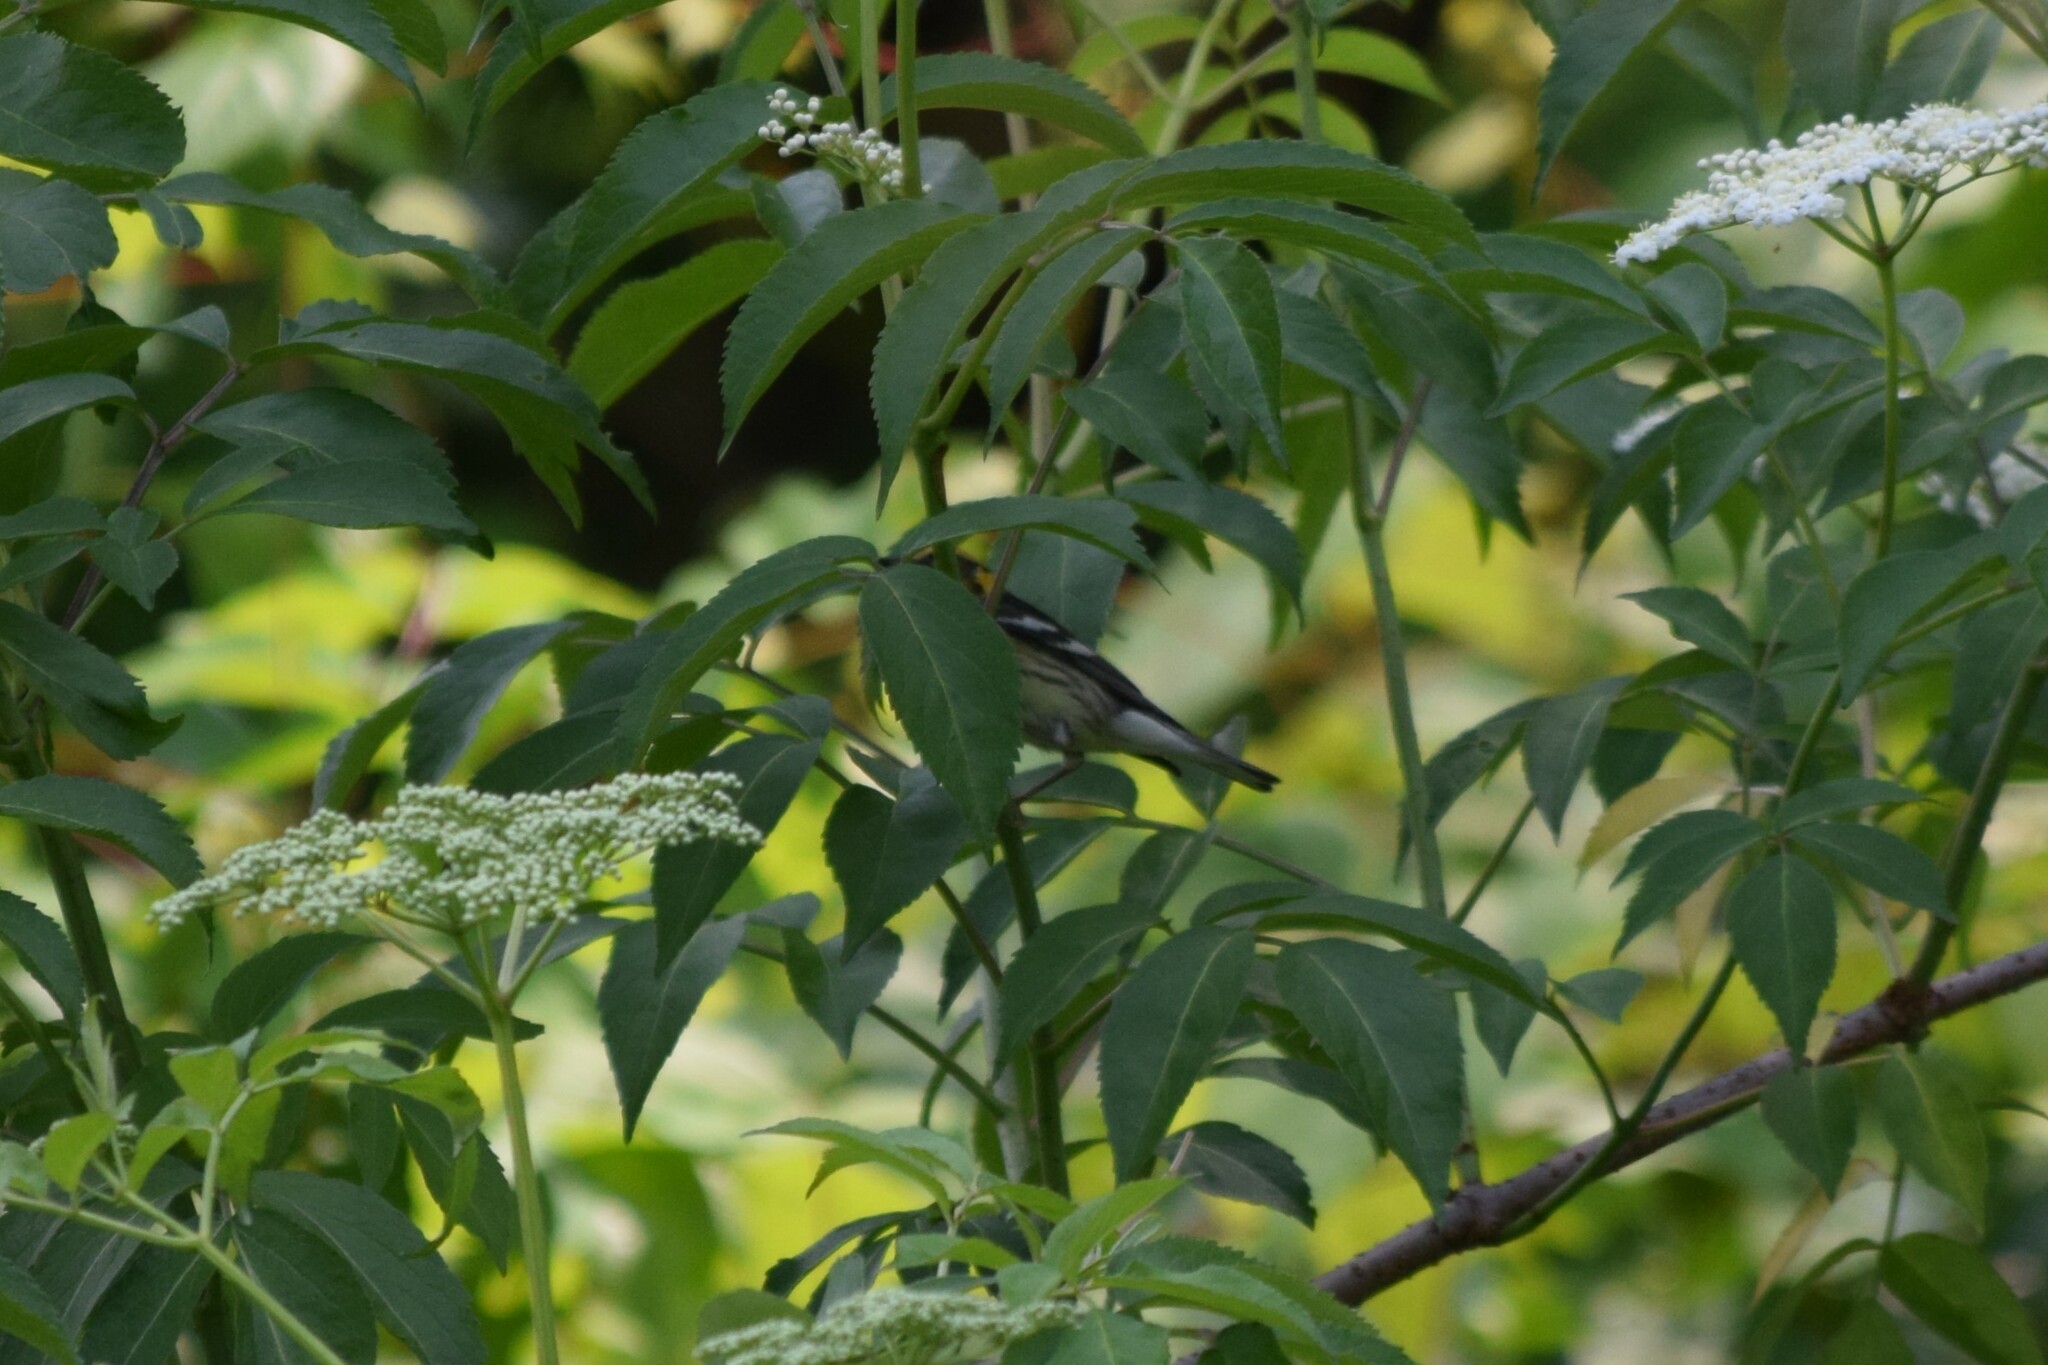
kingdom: Animalia
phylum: Chordata
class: Aves
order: Passeriformes
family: Parulidae
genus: Setophaga
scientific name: Setophaga fusca
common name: Blackburnian warbler
